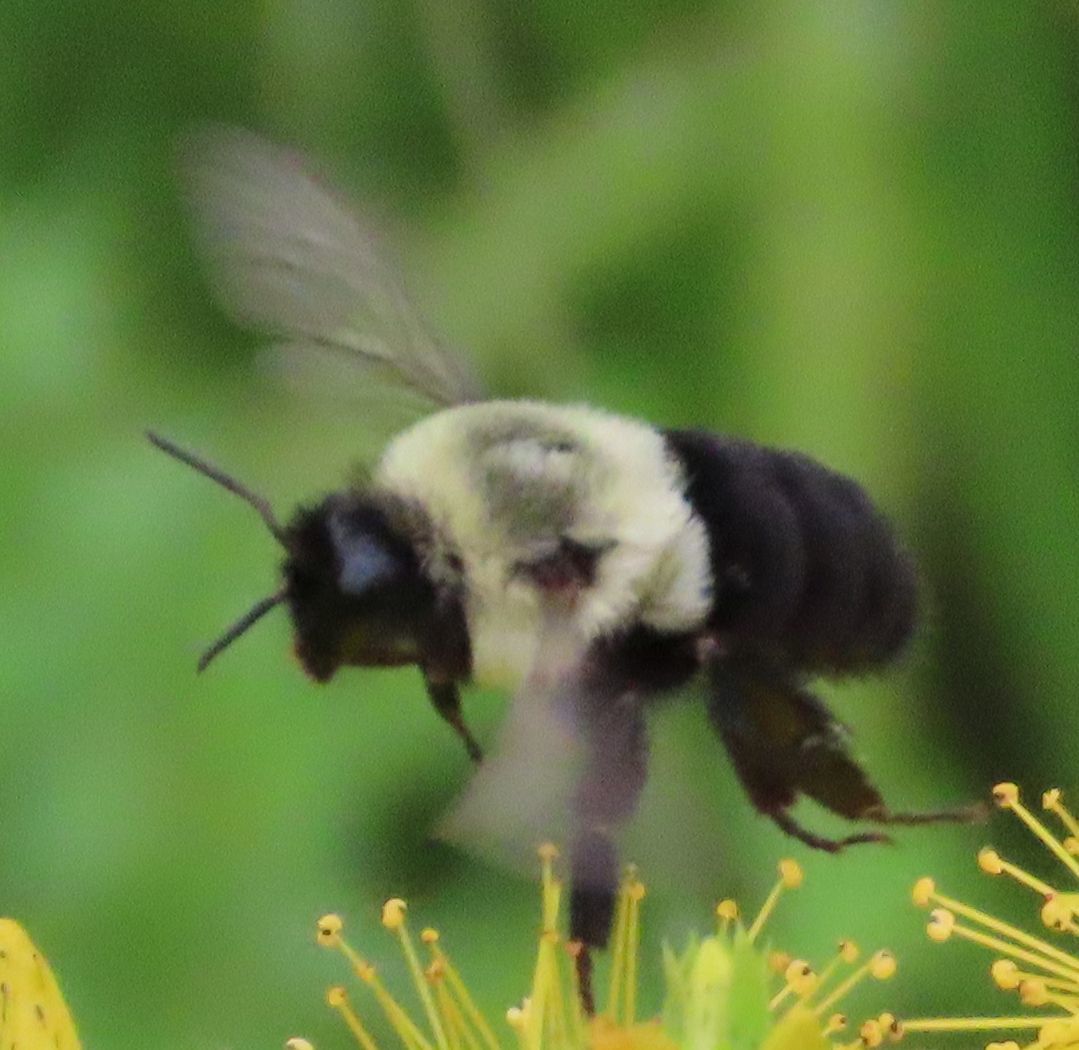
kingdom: Animalia
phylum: Arthropoda
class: Insecta
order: Hymenoptera
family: Apidae
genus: Bombus
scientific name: Bombus impatiens
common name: Common eastern bumble bee
